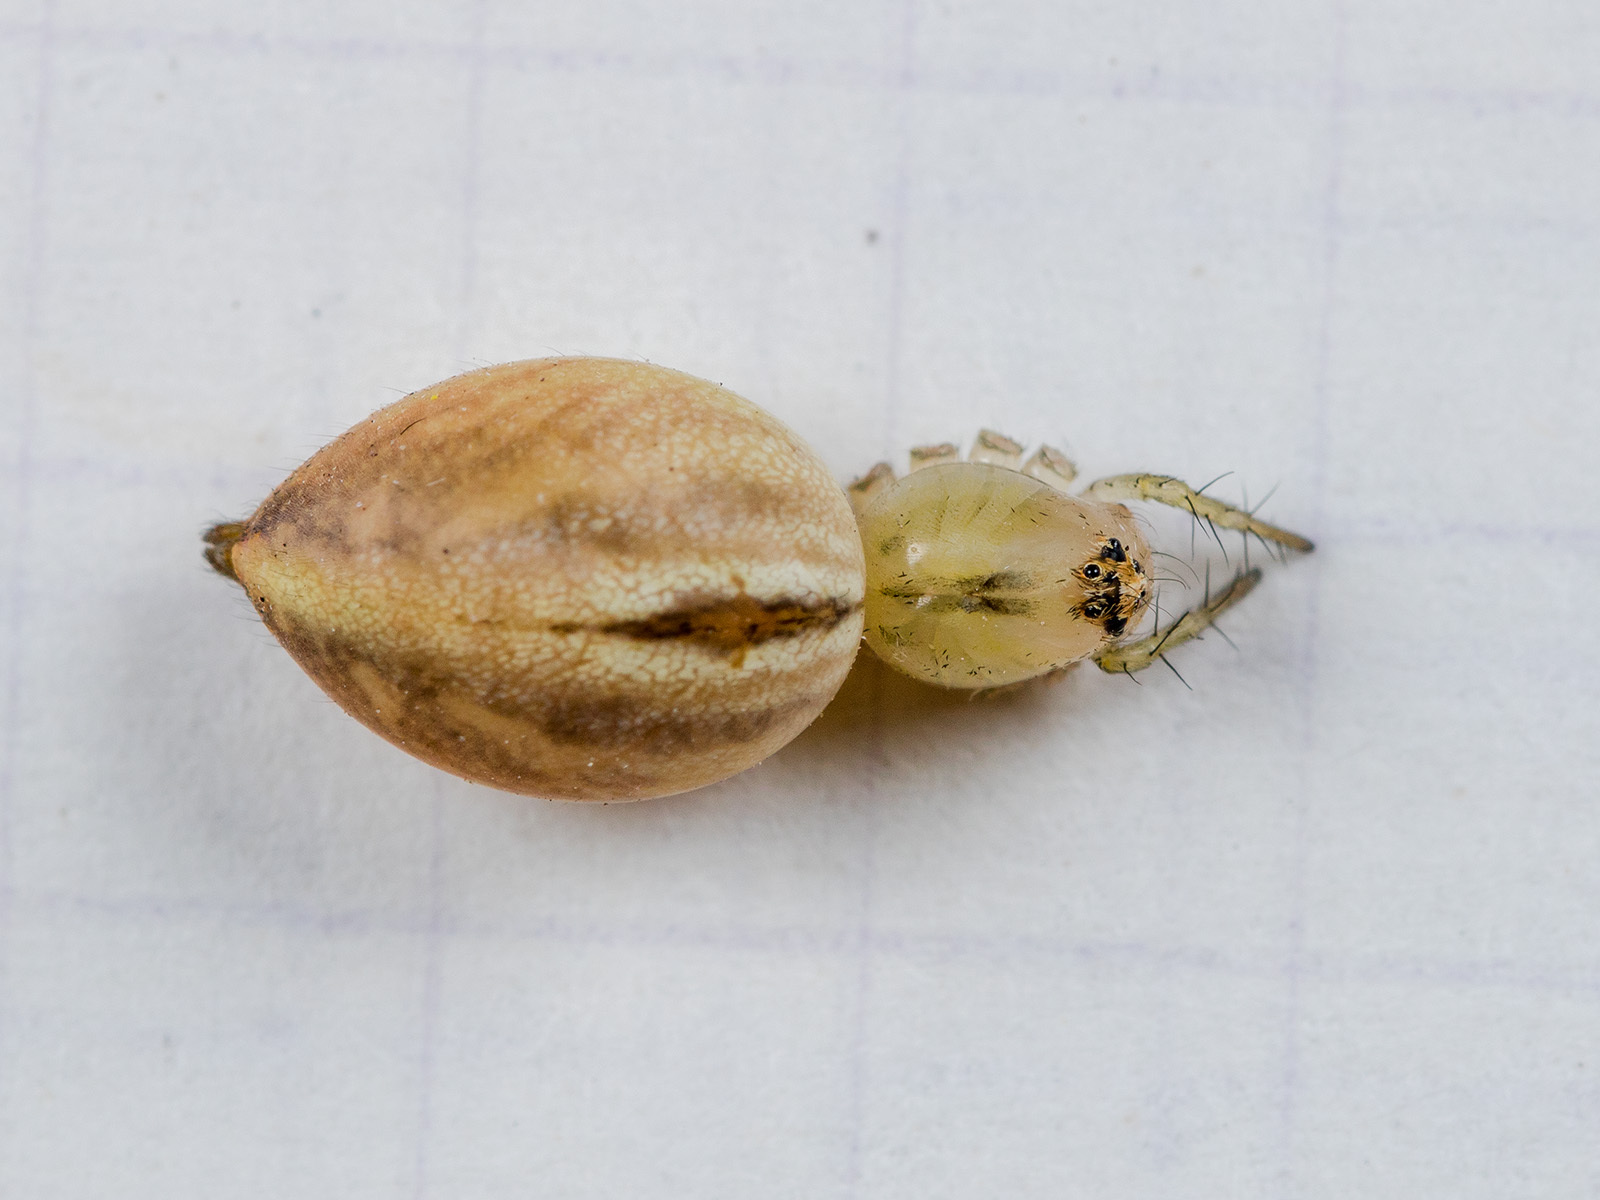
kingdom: Animalia
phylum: Arthropoda
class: Arachnida
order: Araneae
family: Oxyopidae
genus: Oxyopes
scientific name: Oxyopes lineatus
